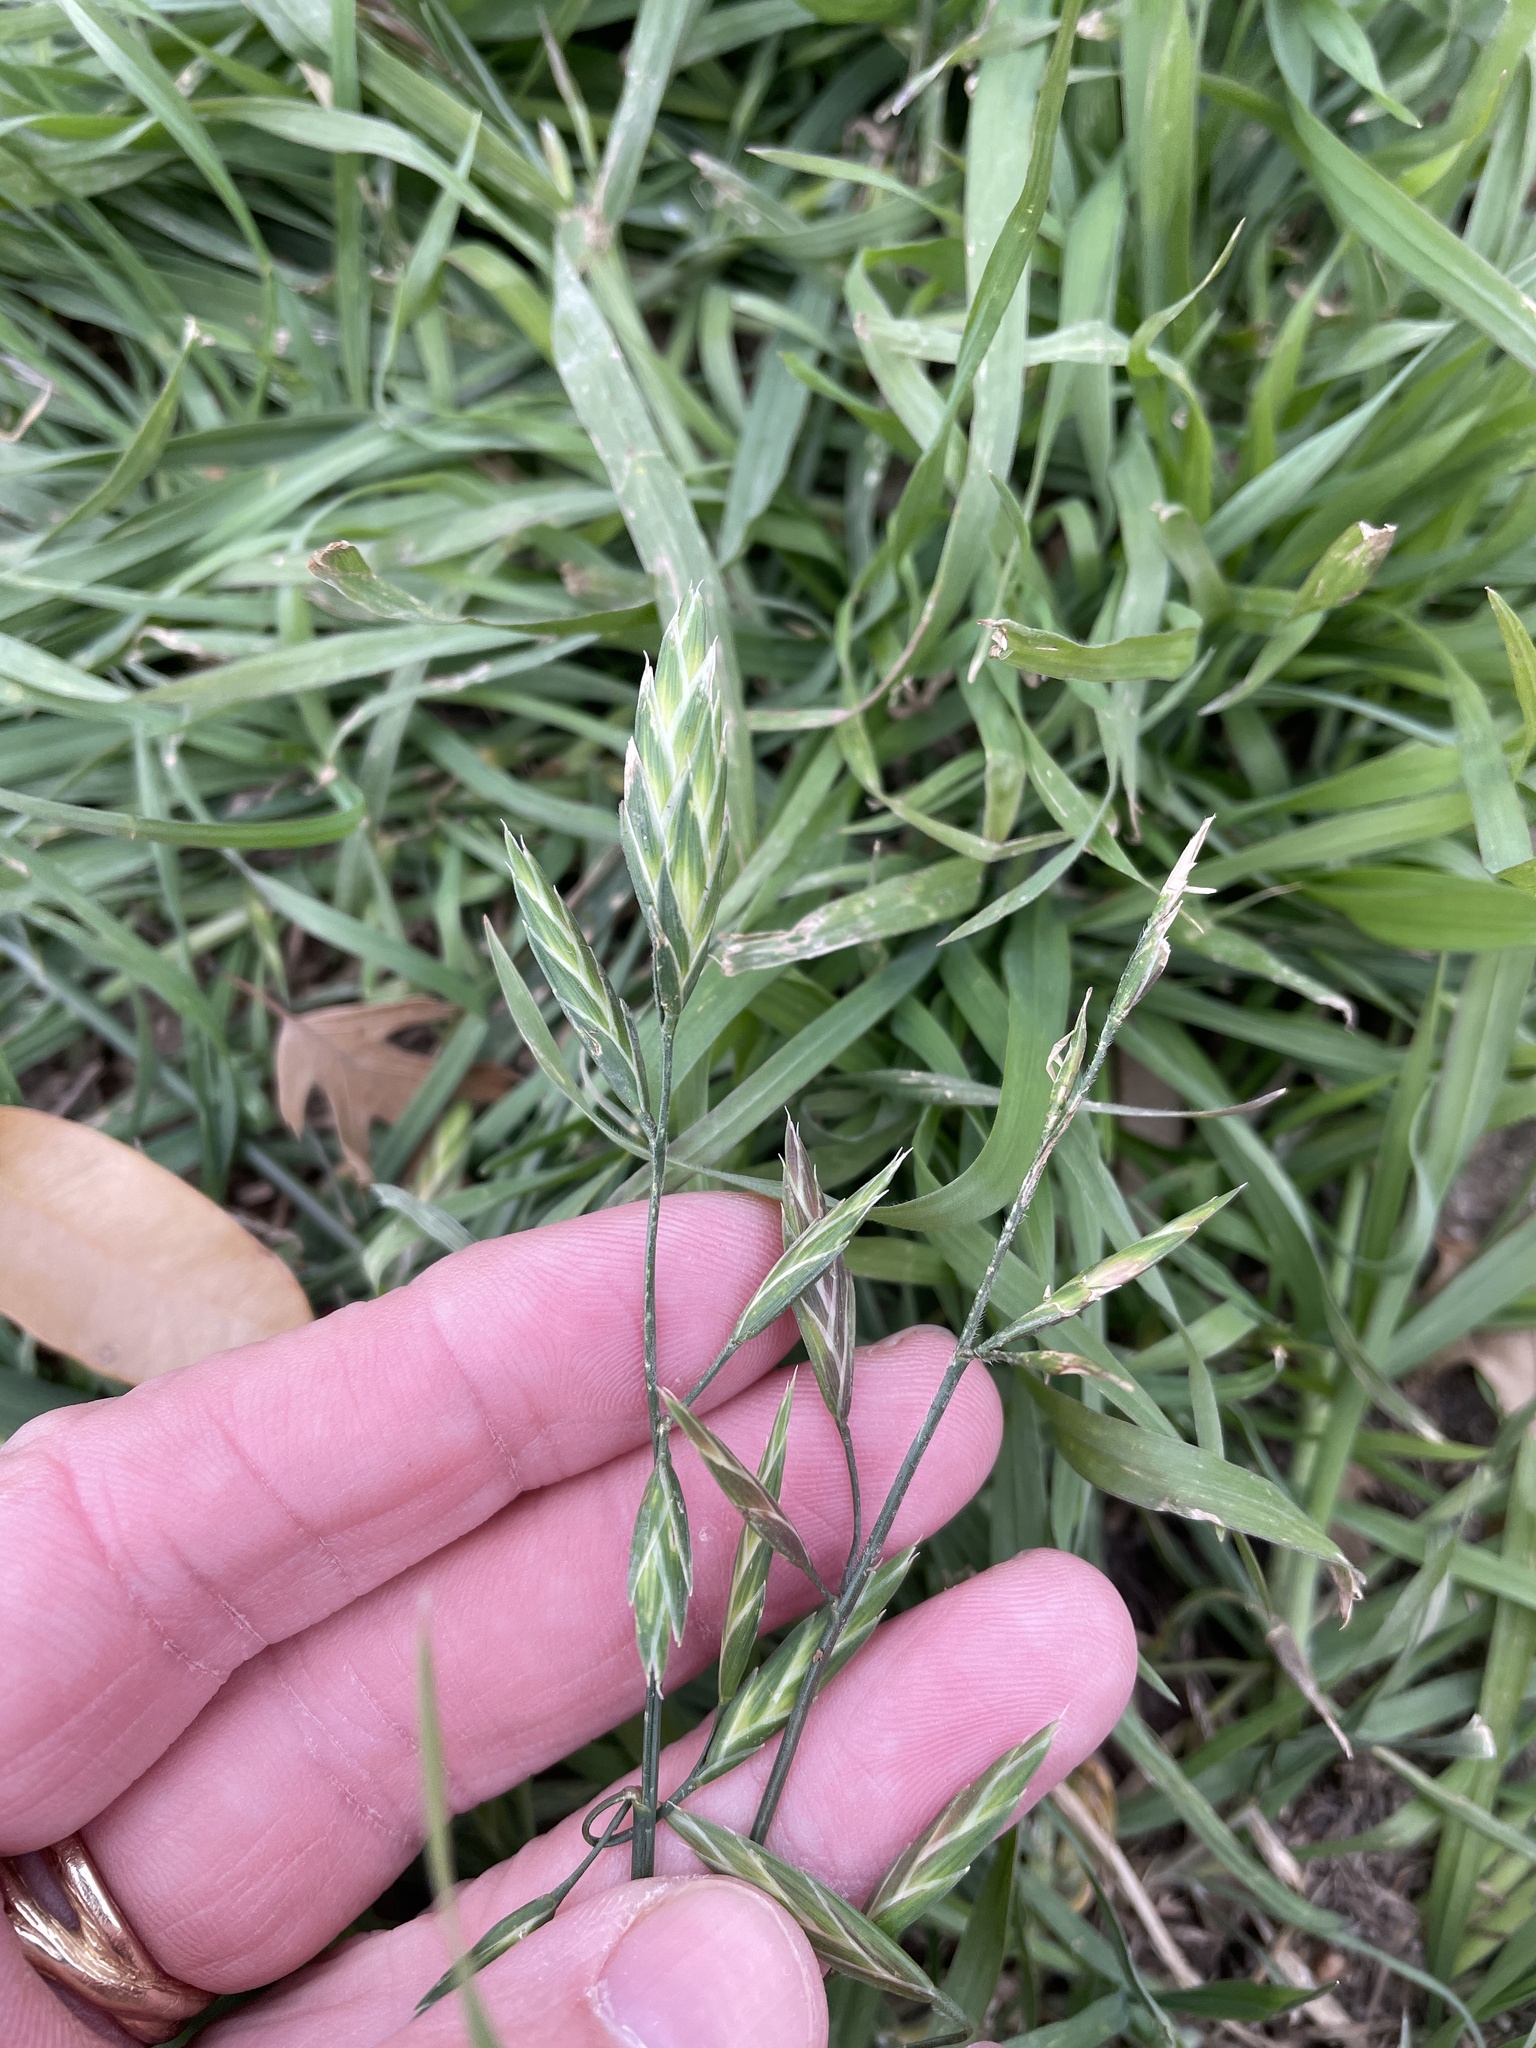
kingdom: Plantae
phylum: Tracheophyta
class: Liliopsida
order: Poales
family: Poaceae
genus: Bromus
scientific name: Bromus catharticus
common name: Rescuegrass
